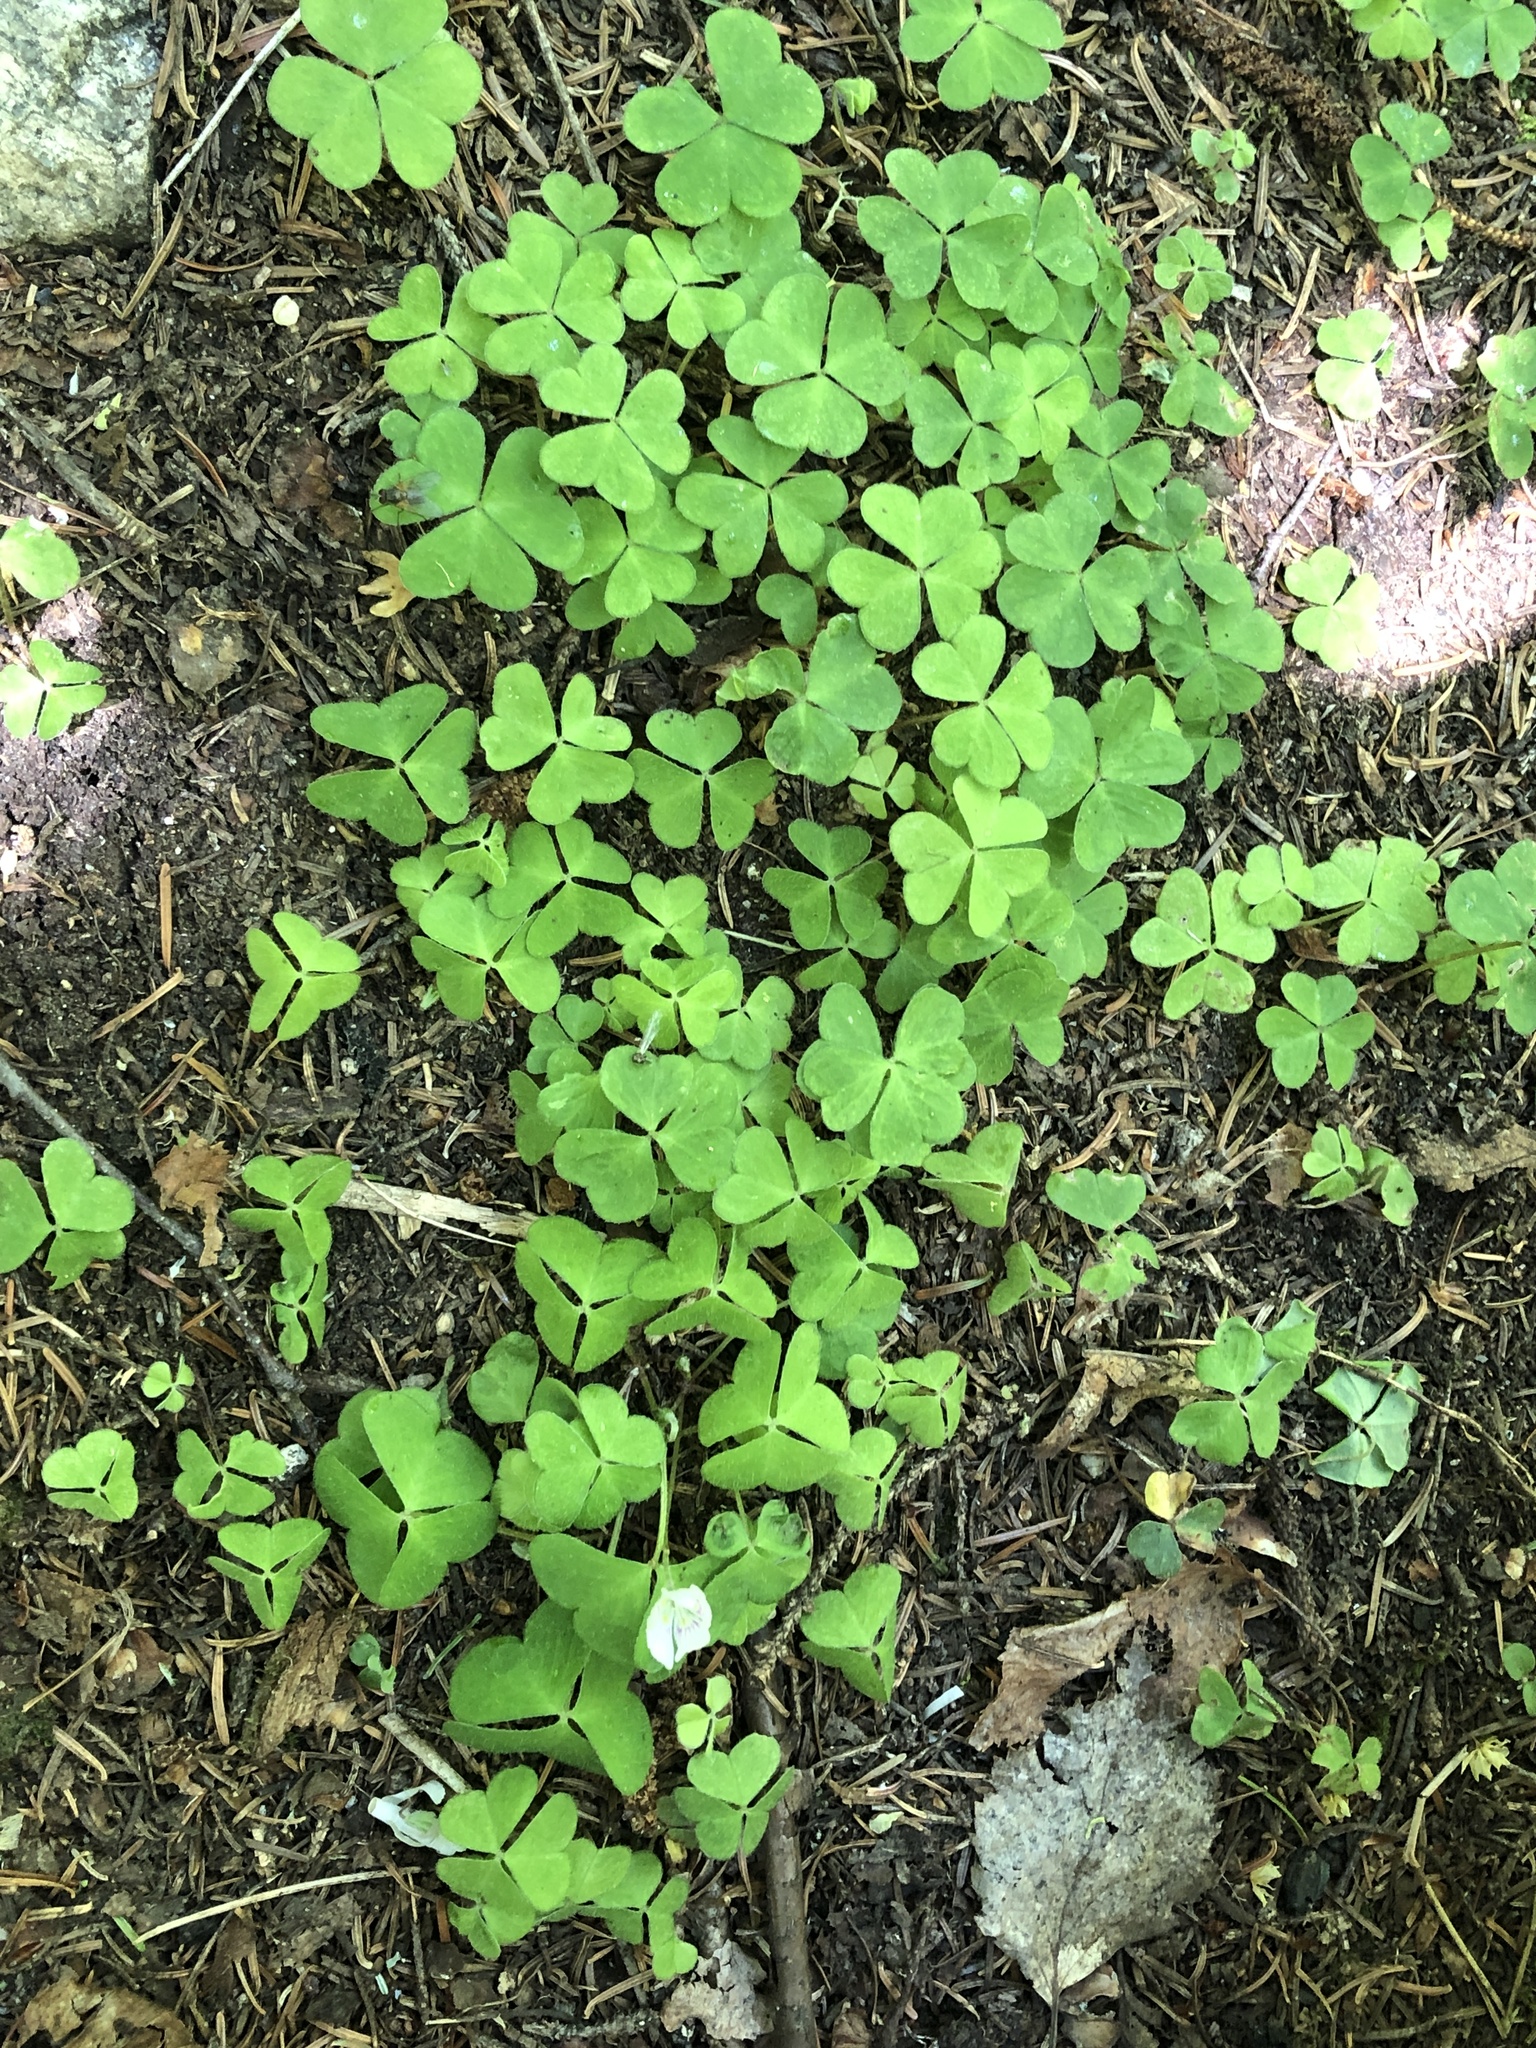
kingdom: Plantae
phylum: Tracheophyta
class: Magnoliopsida
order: Oxalidales
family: Oxalidaceae
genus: Oxalis
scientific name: Oxalis montana
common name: American wood-sorrel
